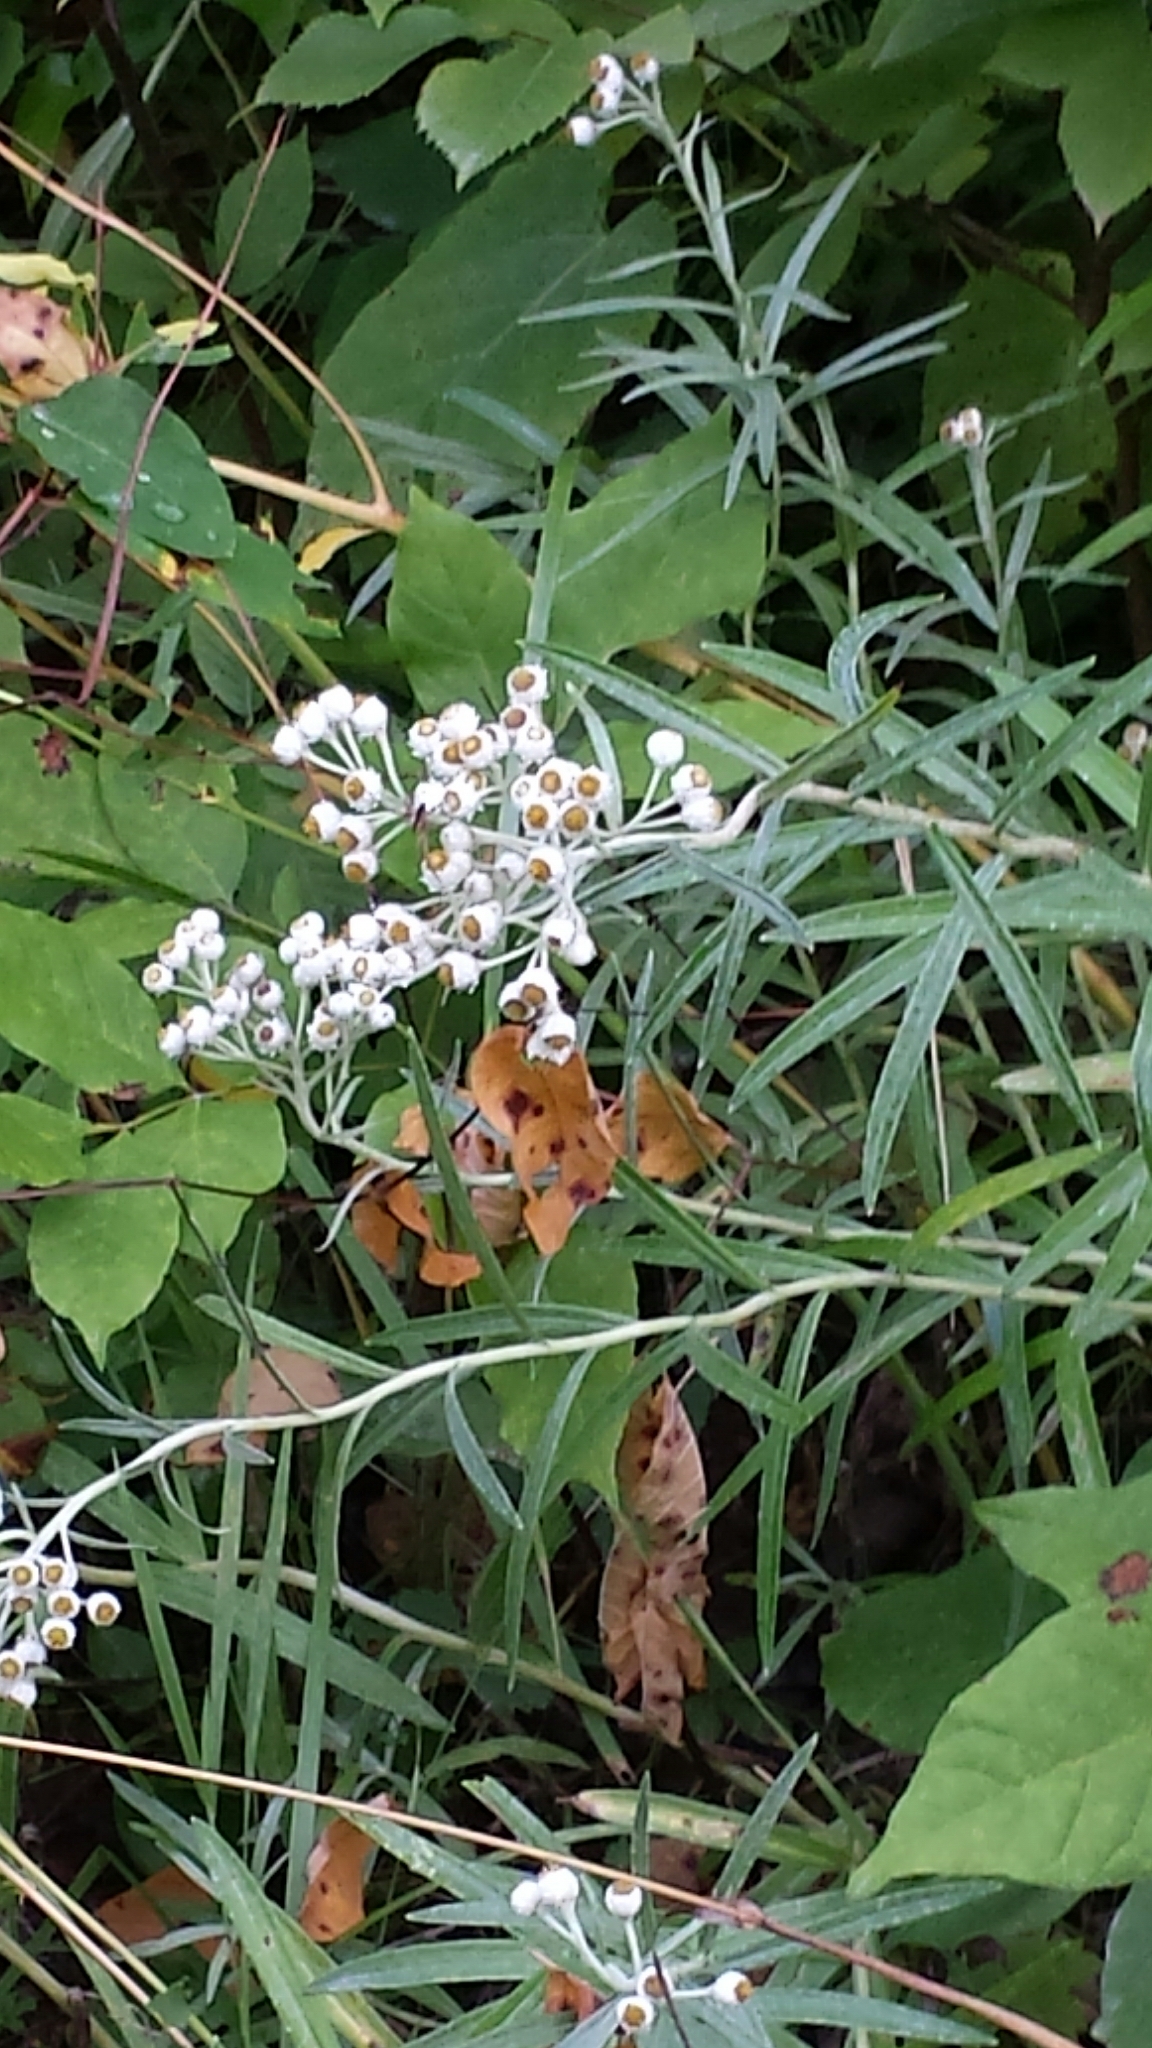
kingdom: Plantae
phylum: Tracheophyta
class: Magnoliopsida
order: Asterales
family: Asteraceae
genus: Anaphalis
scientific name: Anaphalis margaritacea
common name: Pearly everlasting
